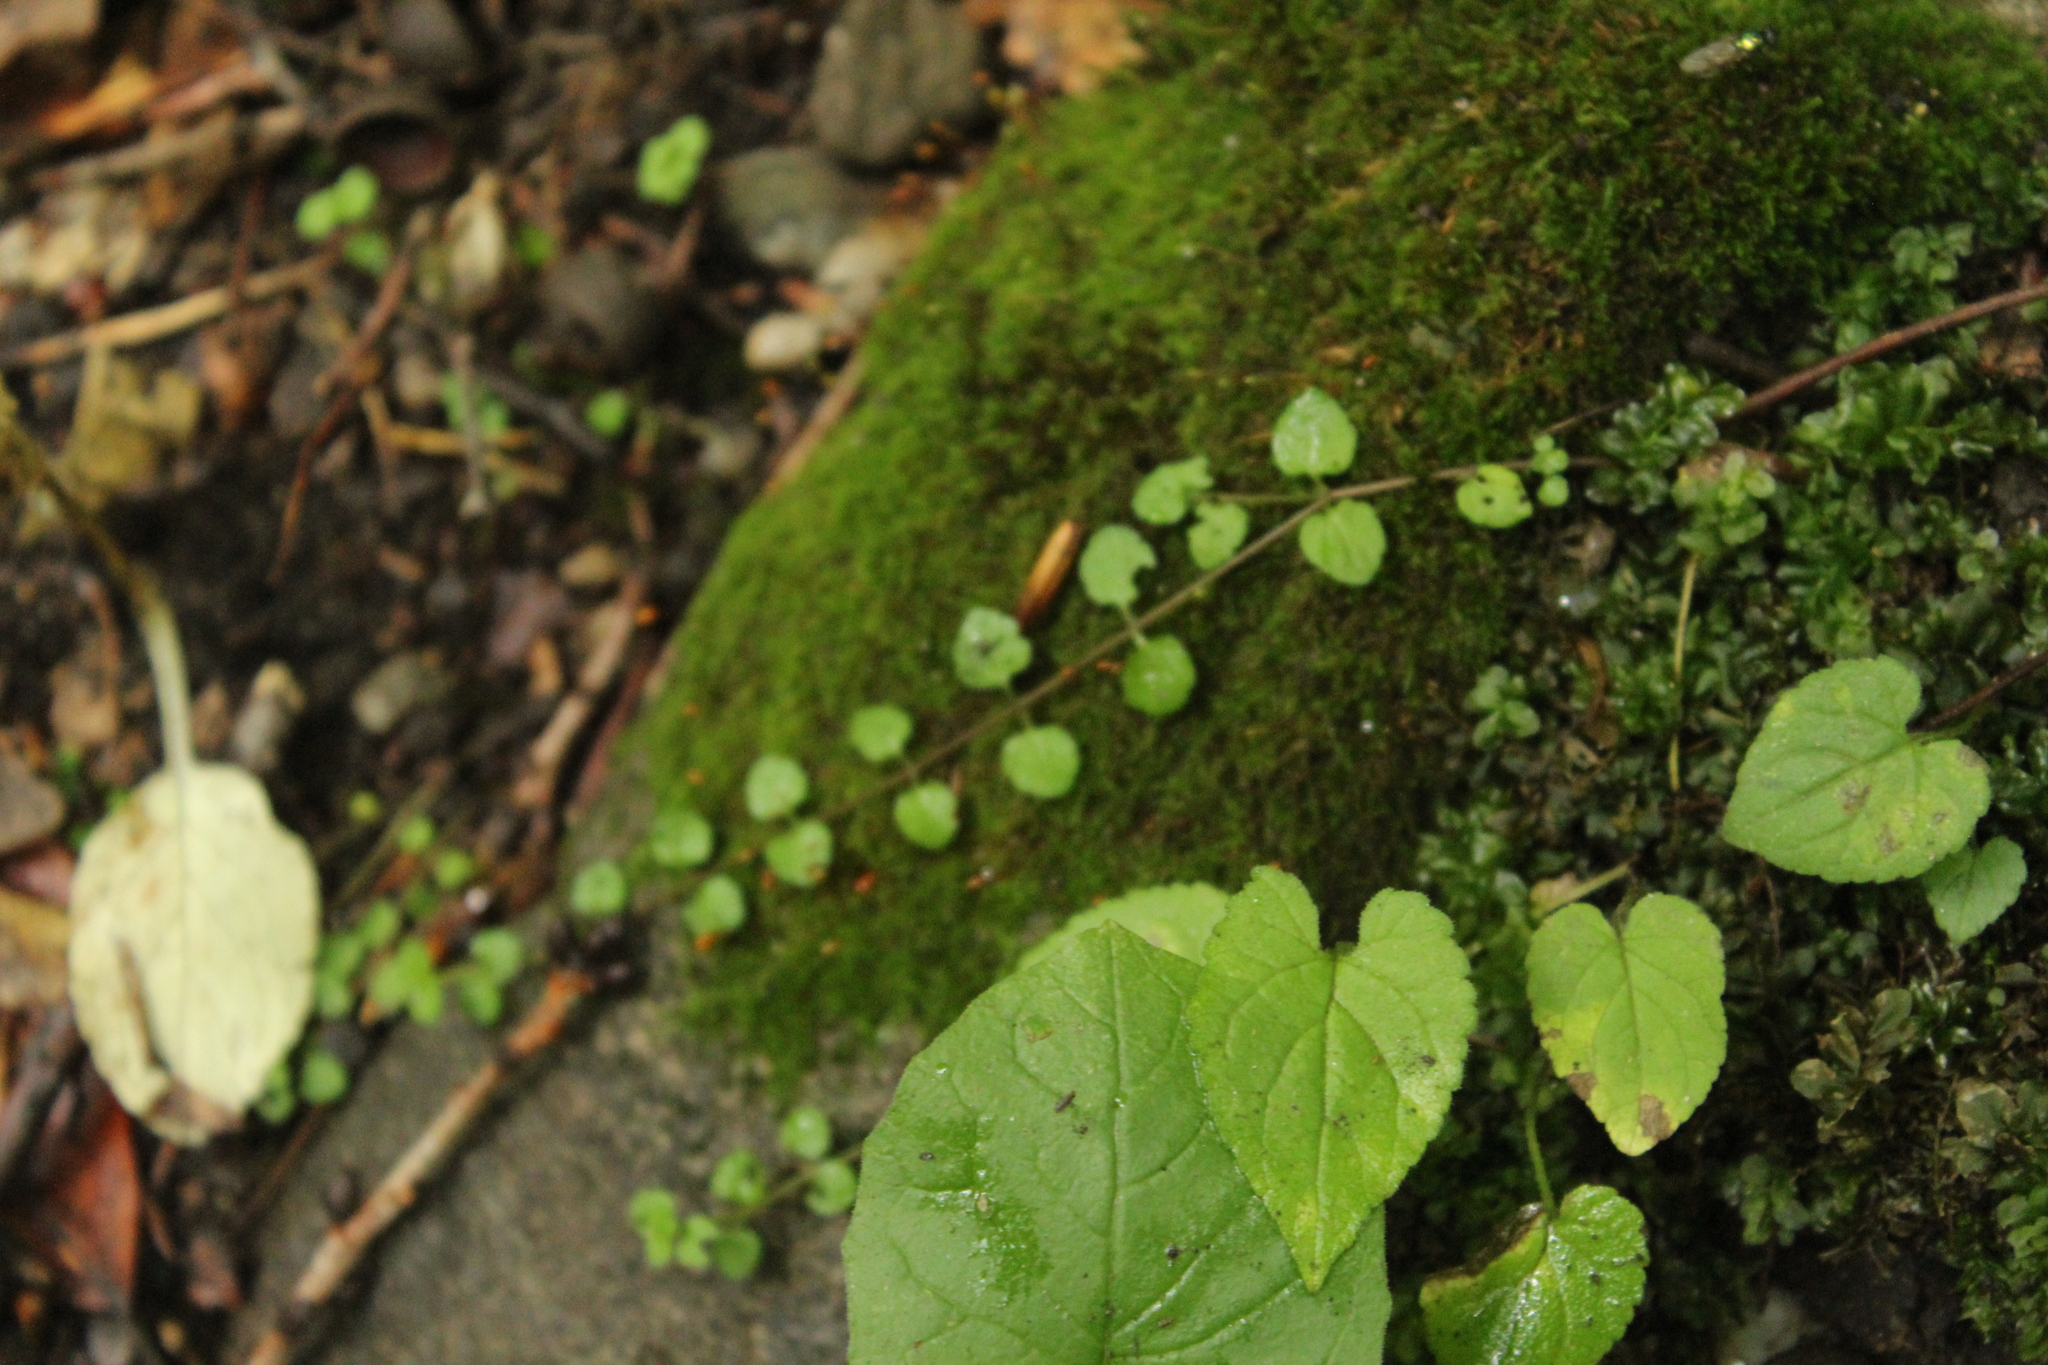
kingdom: Plantae
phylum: Tracheophyta
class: Magnoliopsida
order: Dipsacales
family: Caprifoliaceae
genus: Linnaea
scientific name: Linnaea borealis
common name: Twinflower
